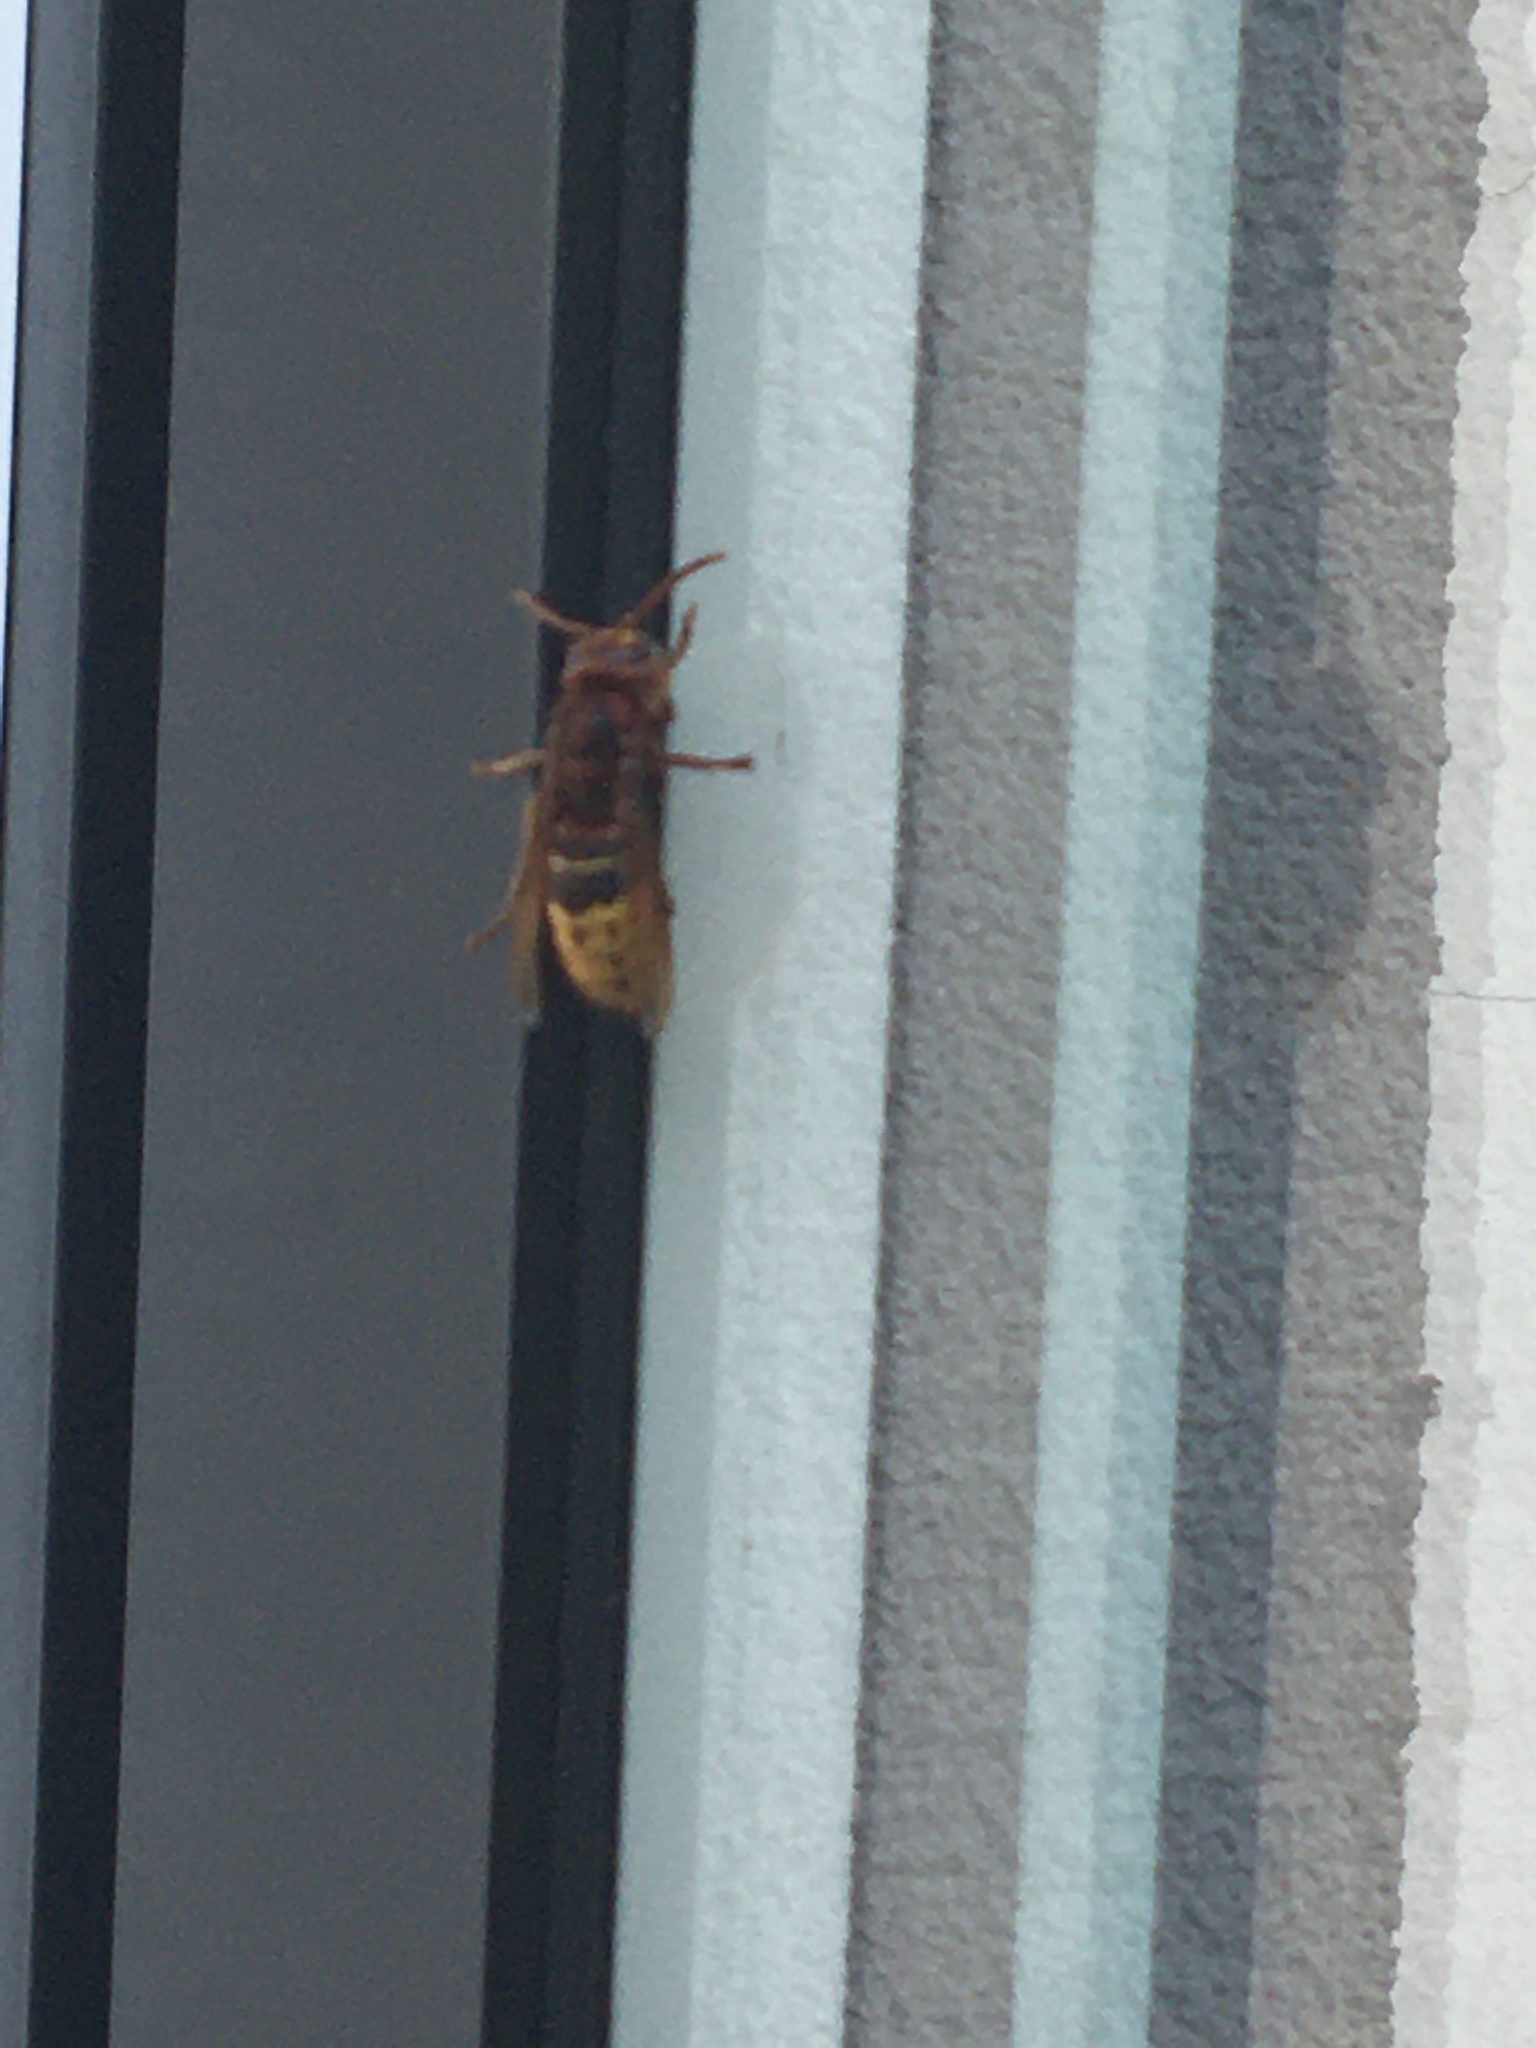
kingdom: Animalia
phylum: Arthropoda
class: Insecta
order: Hymenoptera
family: Vespidae
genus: Vespa
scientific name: Vespa crabro
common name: Hornet
